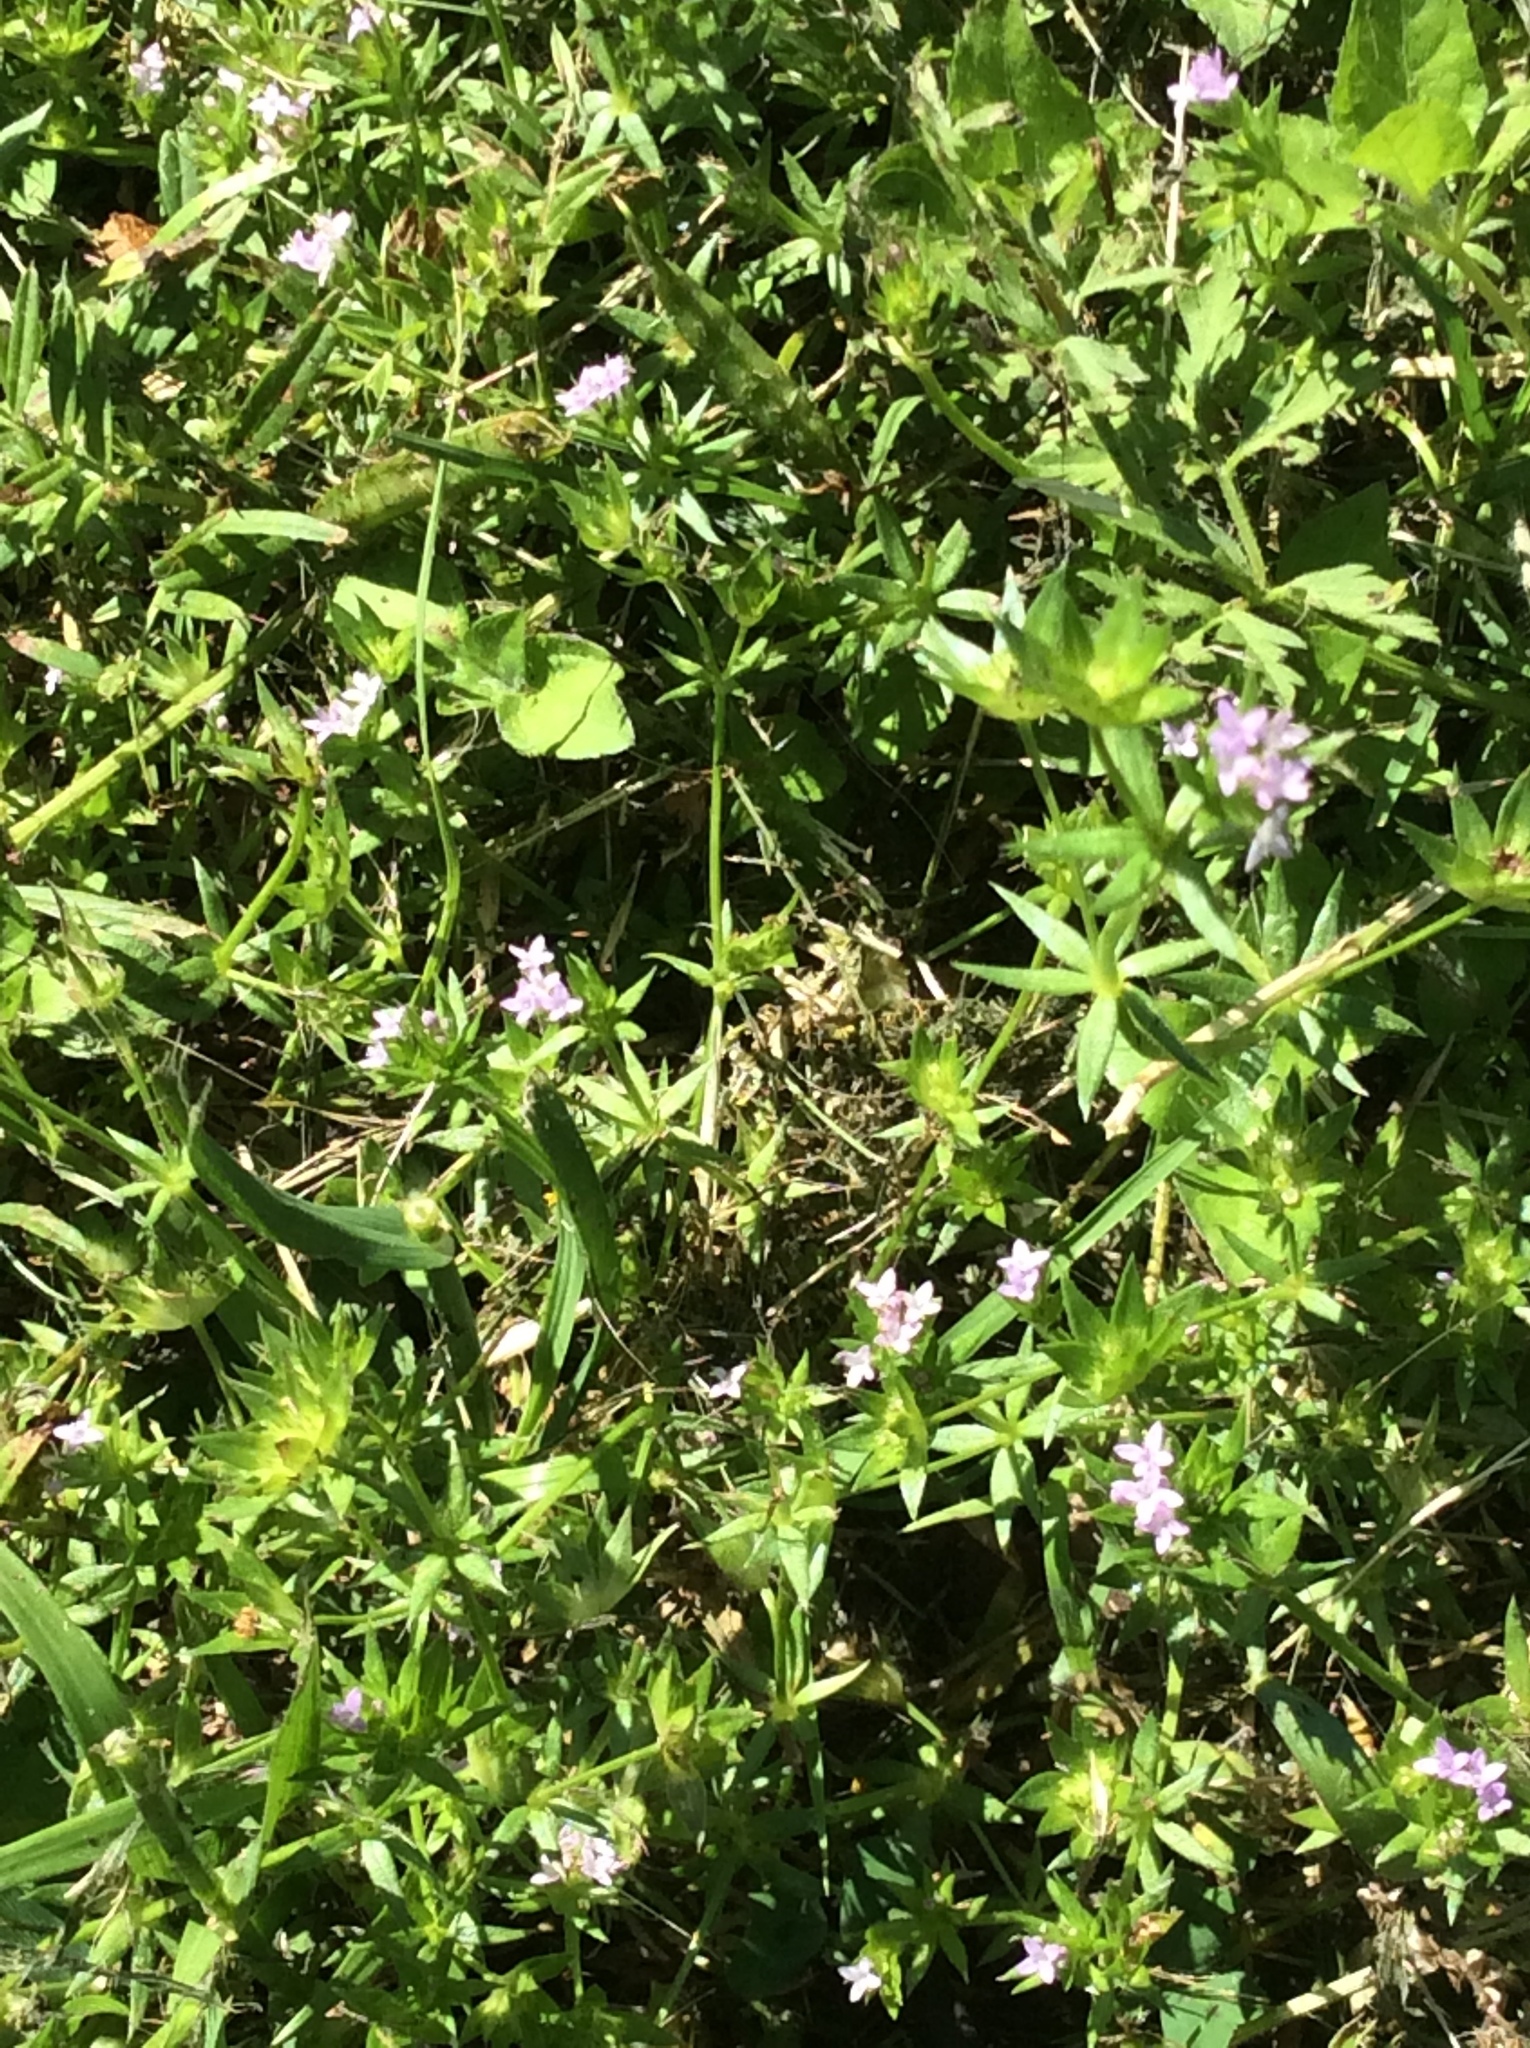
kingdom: Plantae
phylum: Tracheophyta
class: Magnoliopsida
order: Gentianales
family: Rubiaceae
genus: Sherardia
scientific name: Sherardia arvensis
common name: Field madder
